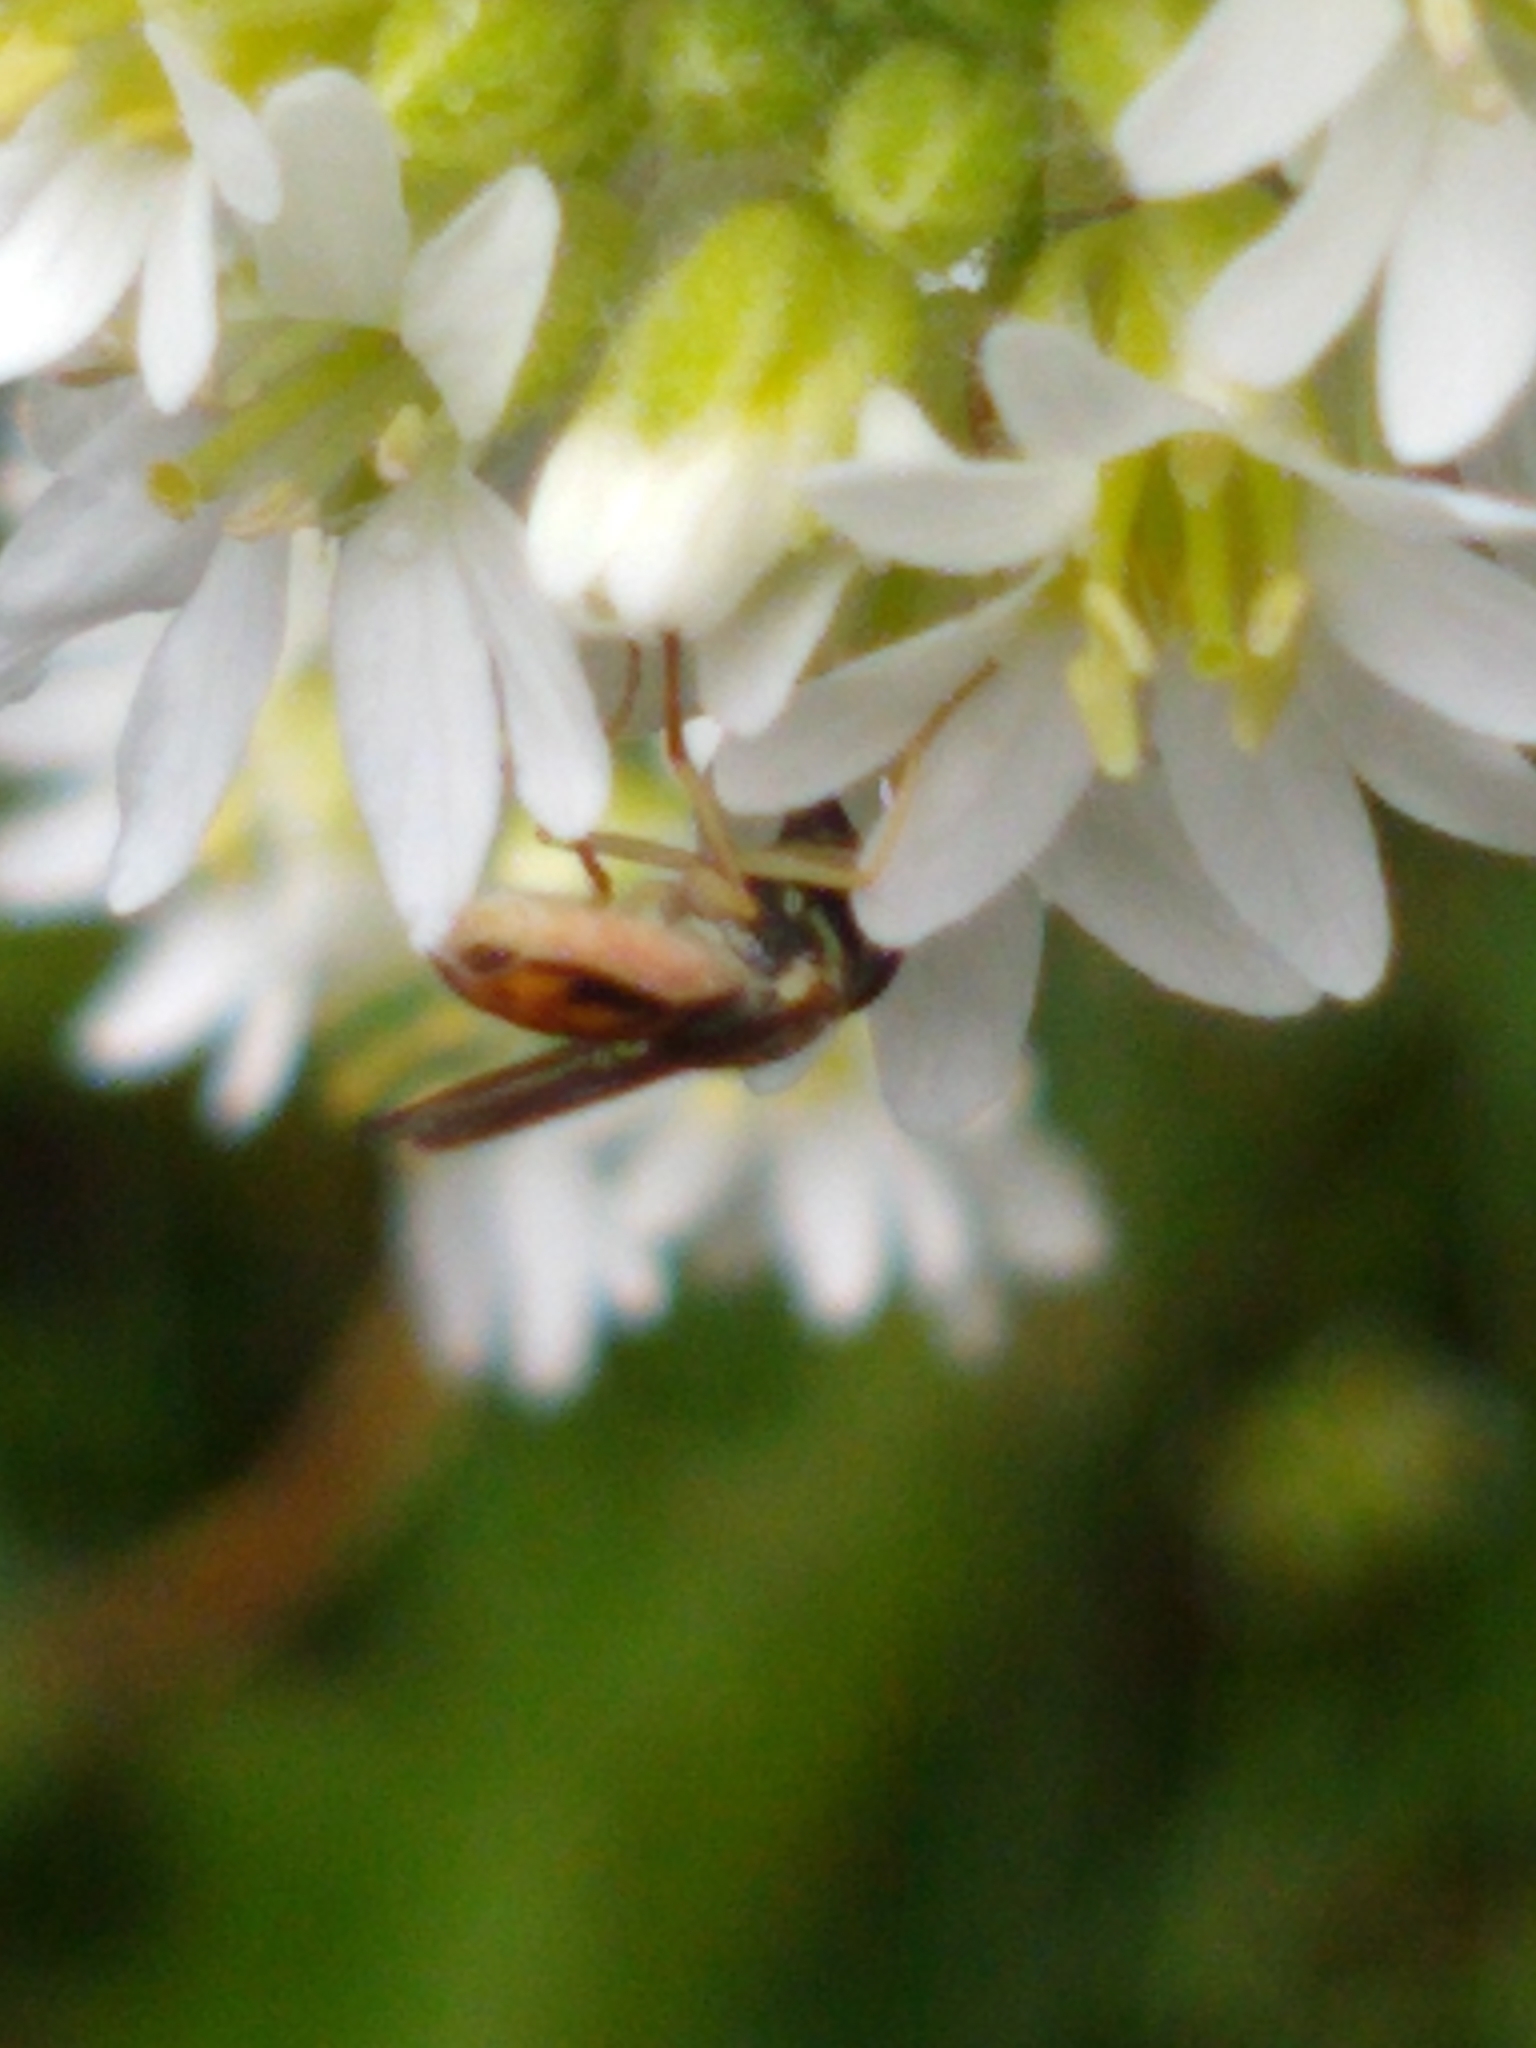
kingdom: Animalia
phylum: Arthropoda
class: Insecta
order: Diptera
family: Syrphidae
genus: Toxomerus
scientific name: Toxomerus marginatus
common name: Syrphid fly
